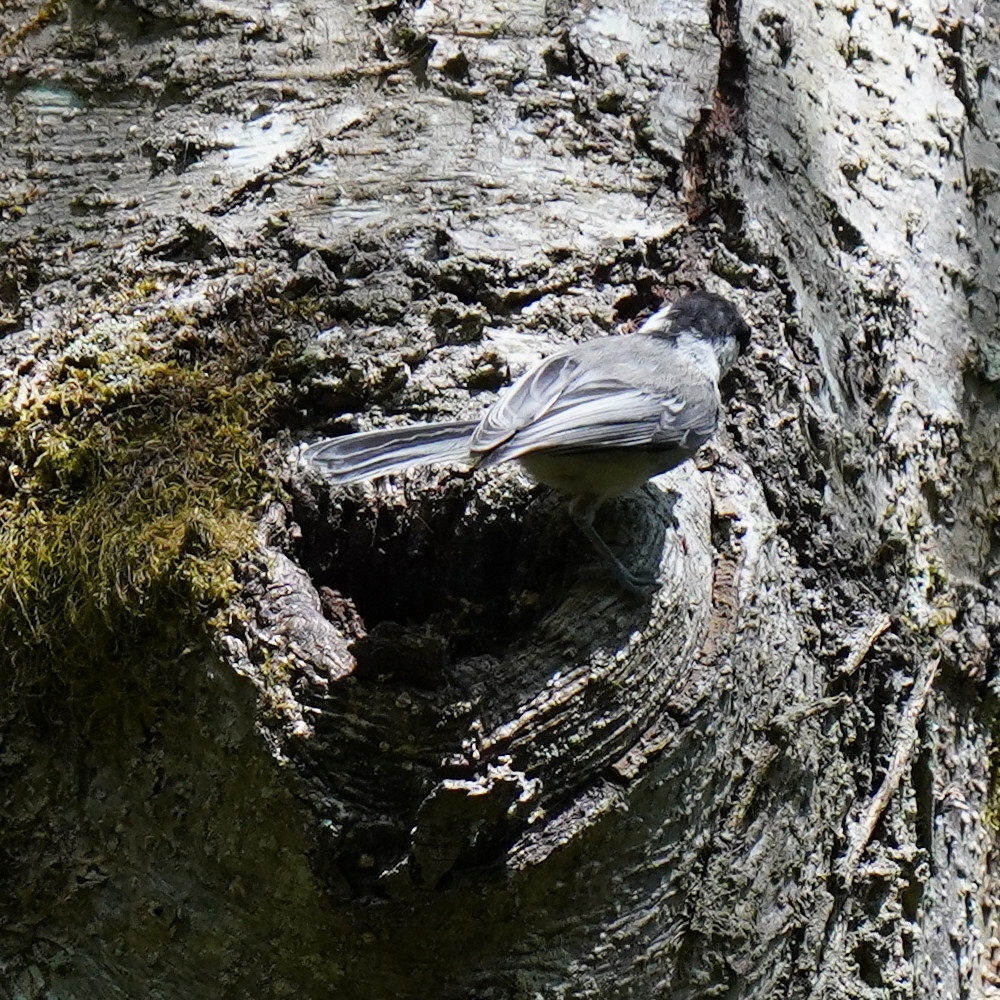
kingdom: Animalia
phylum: Chordata
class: Aves
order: Passeriformes
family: Paridae
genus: Poecile
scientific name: Poecile atricapillus
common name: Black-capped chickadee
